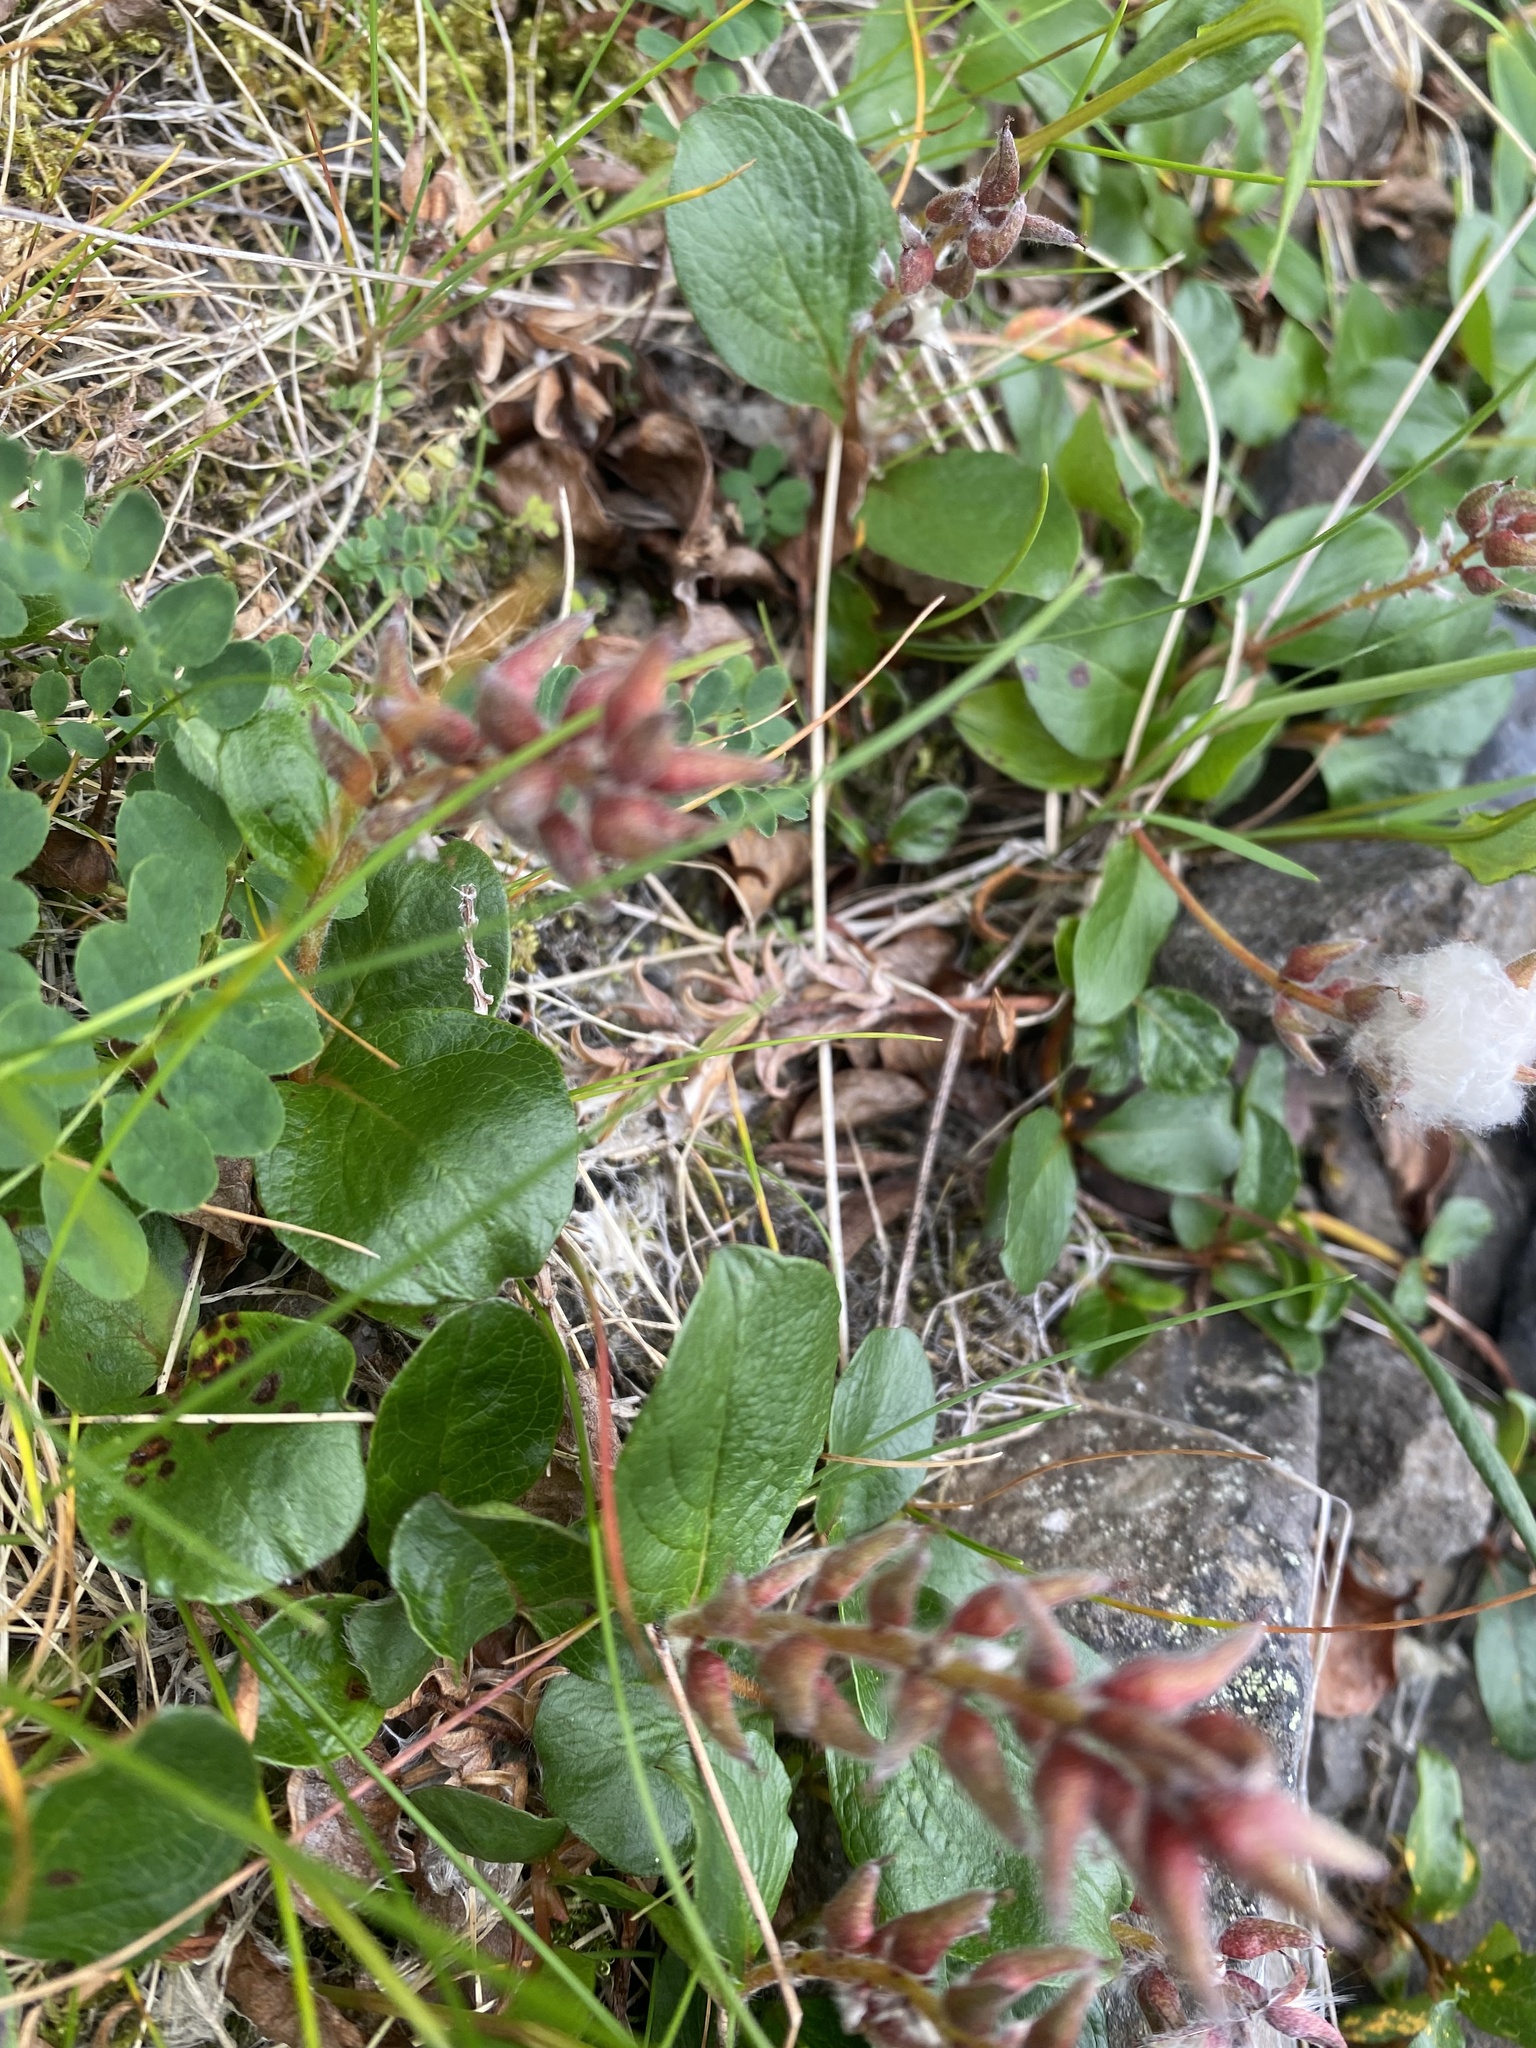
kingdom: Plantae
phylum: Tracheophyta
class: Magnoliopsida
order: Malpighiales
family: Salicaceae
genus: Salix
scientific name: Salix polaris
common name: Polar willow
